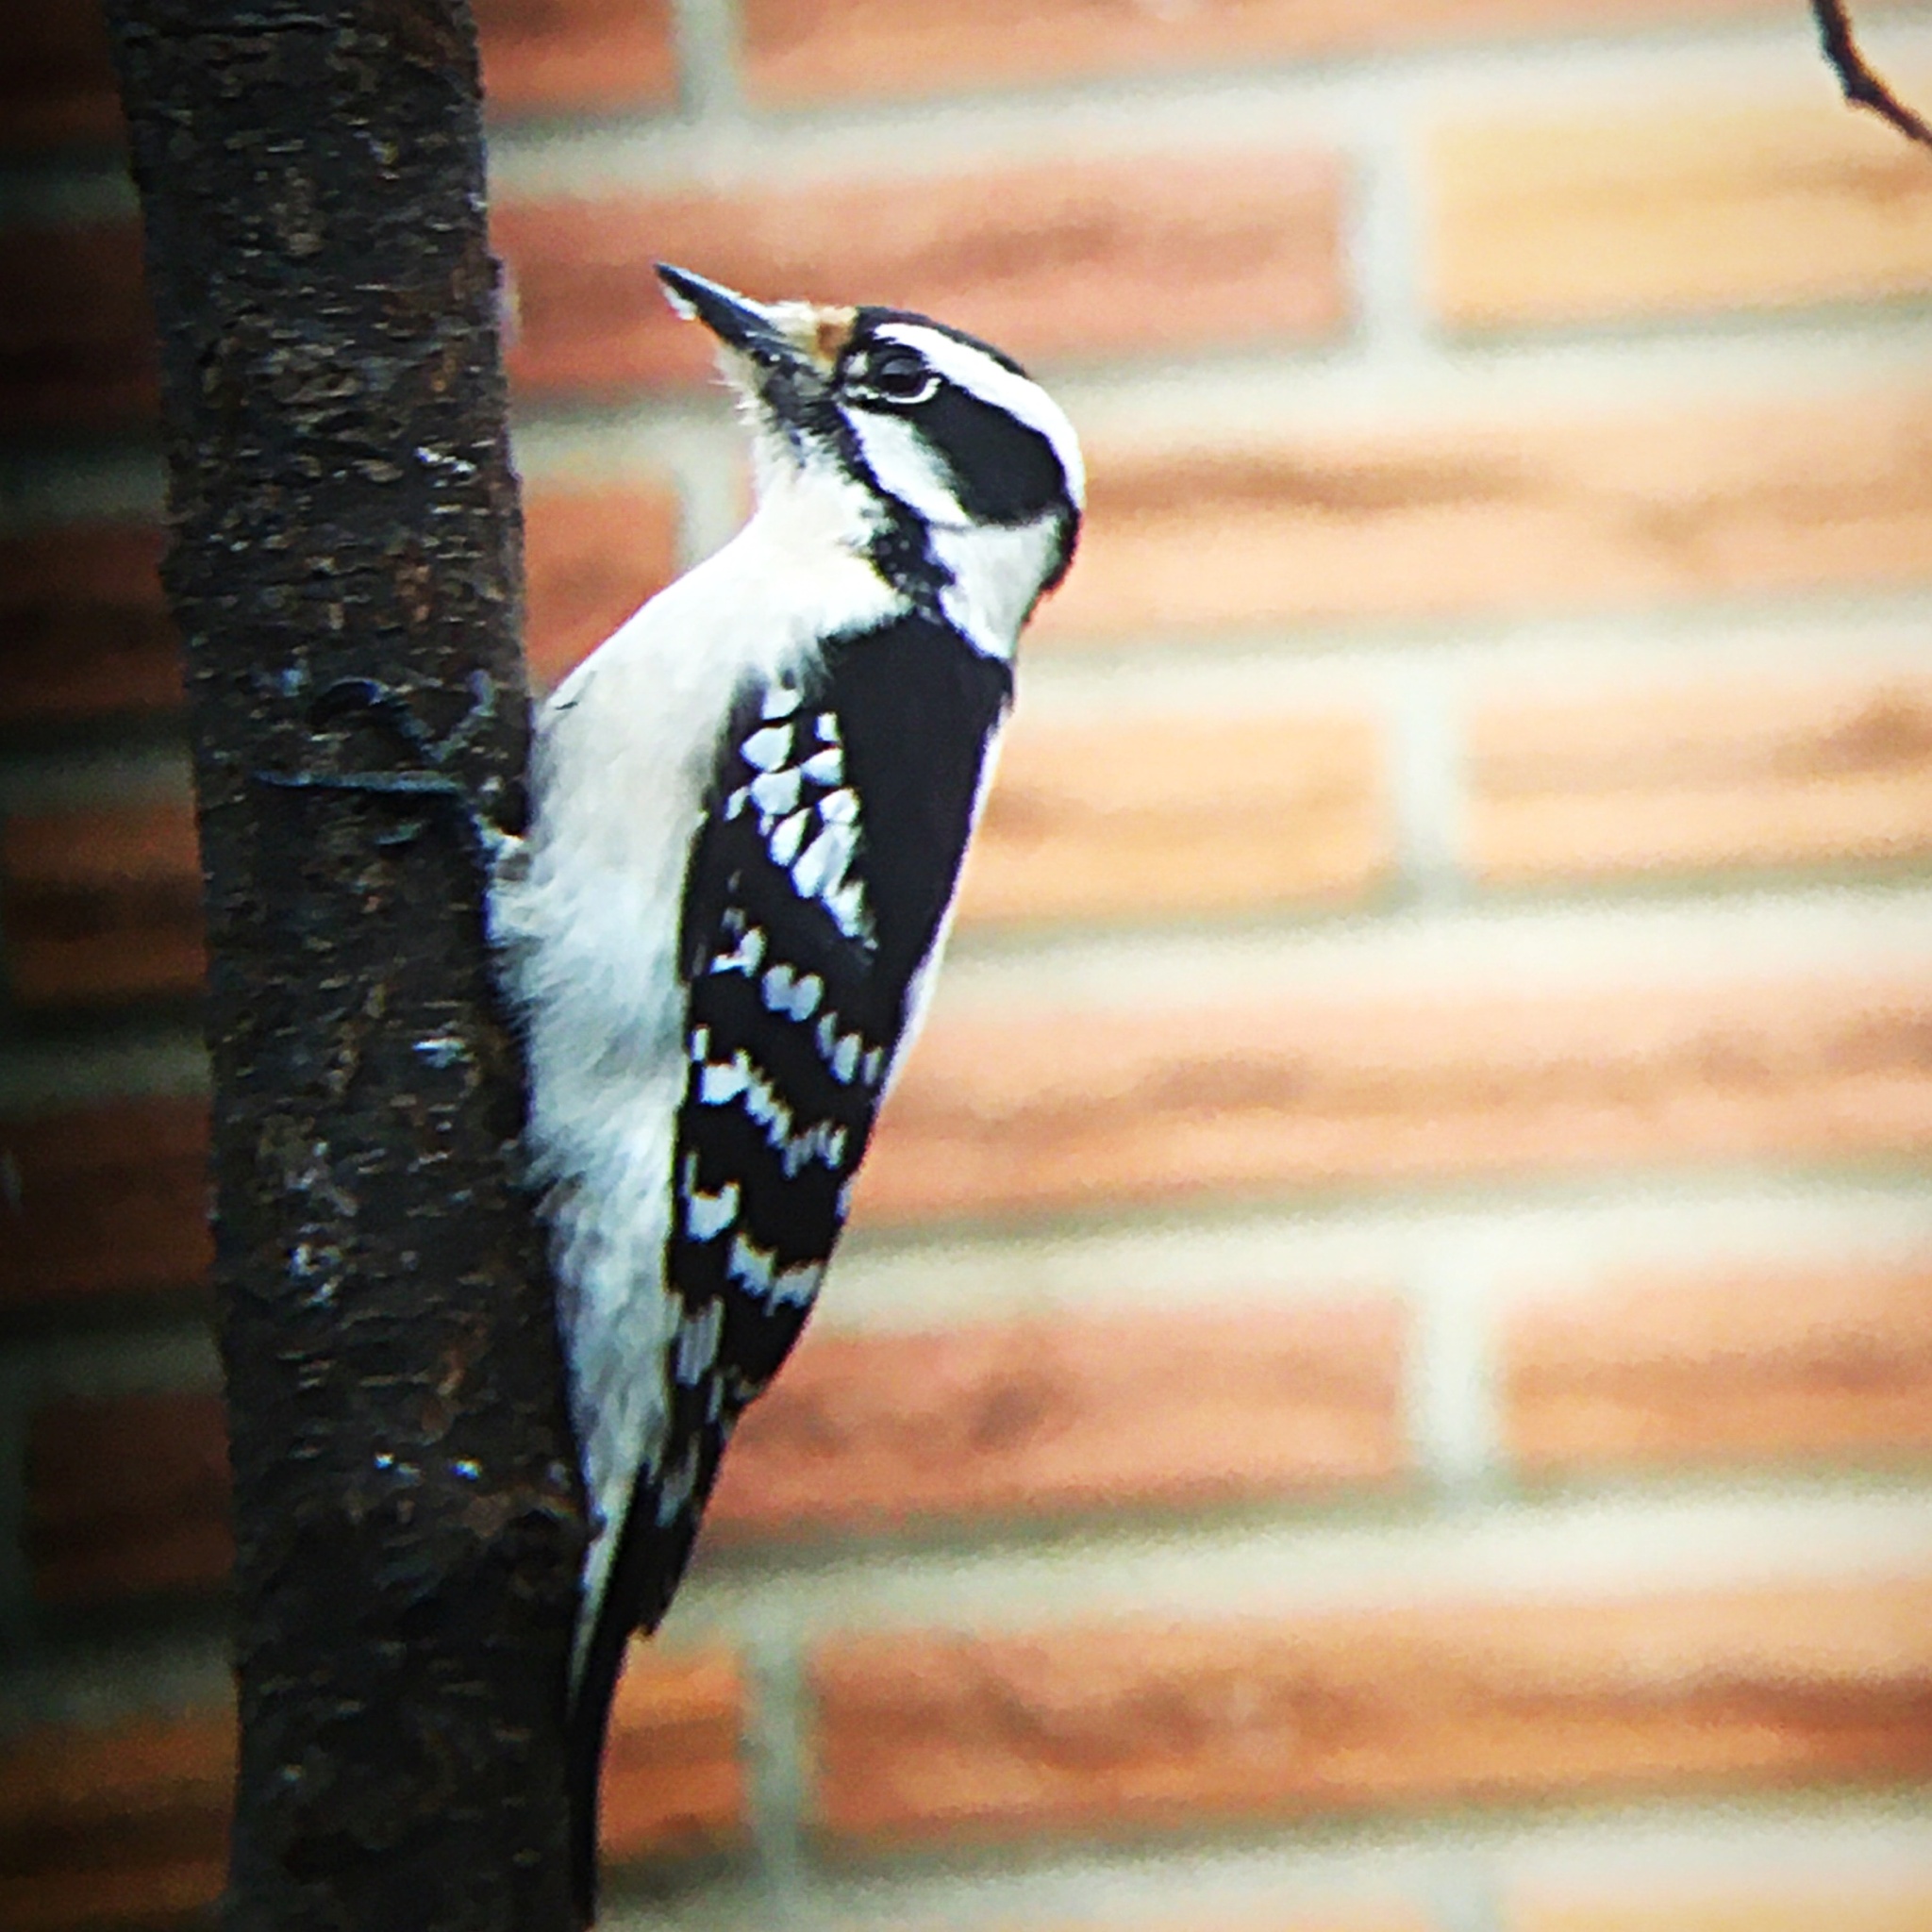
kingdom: Animalia
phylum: Chordata
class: Aves
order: Piciformes
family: Picidae
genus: Dryobates
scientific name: Dryobates pubescens
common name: Downy woodpecker
